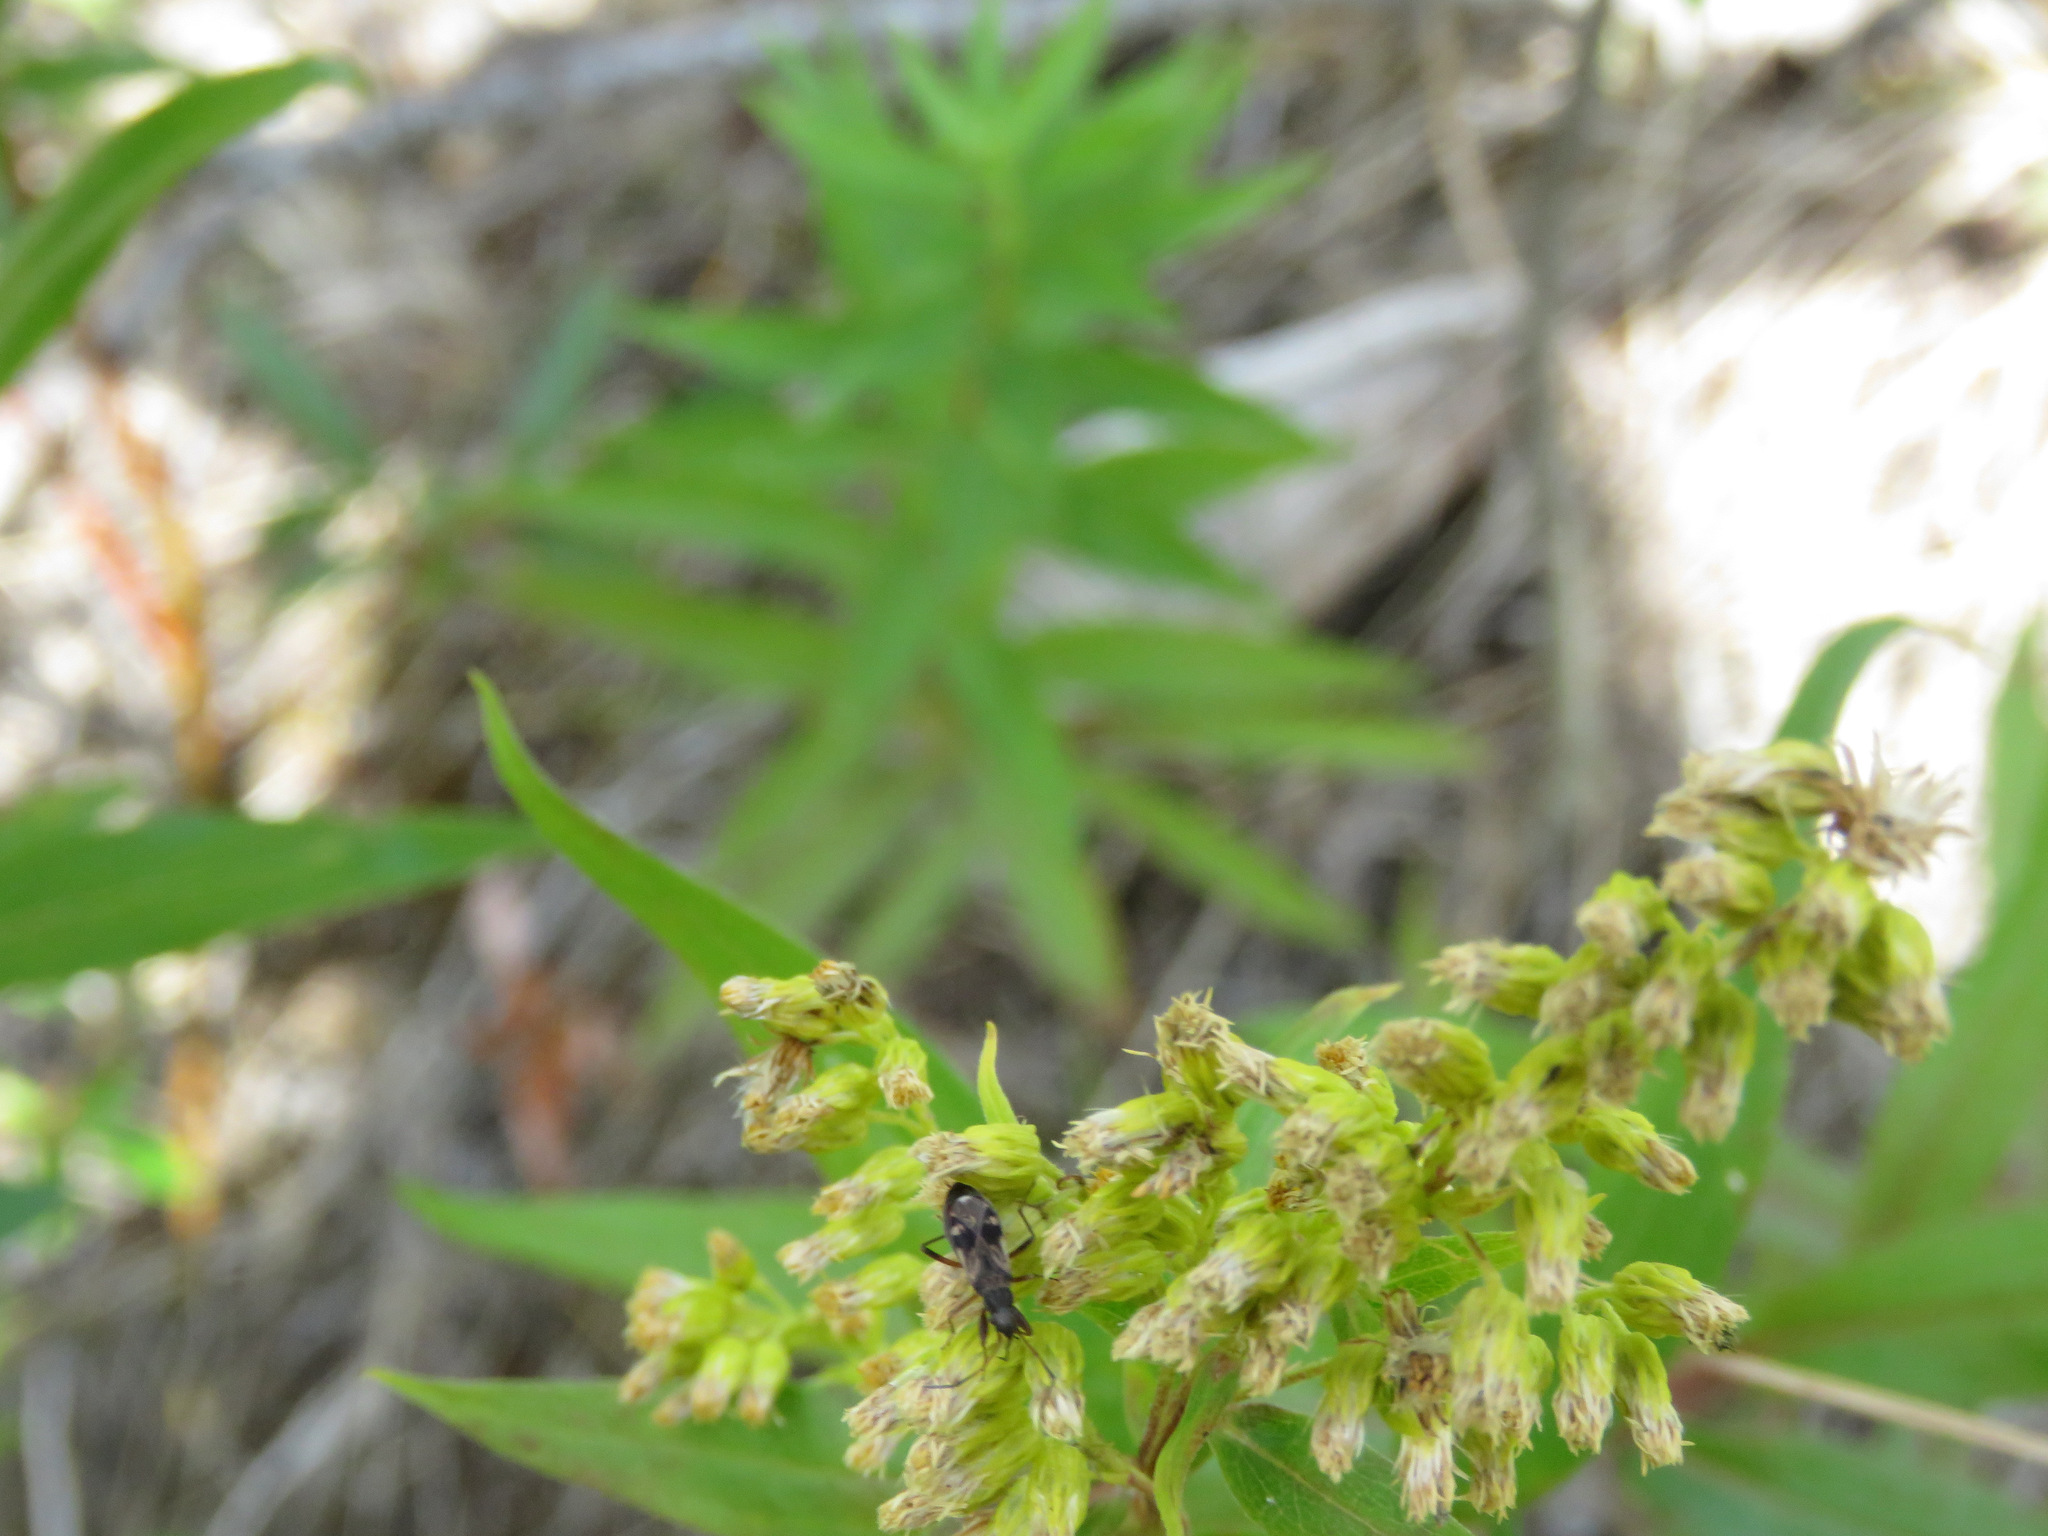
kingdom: Animalia
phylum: Arthropoda
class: Insecta
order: Hemiptera
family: Rhyparochromidae
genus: Ligyrocoris
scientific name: Ligyrocoris sylvestris
